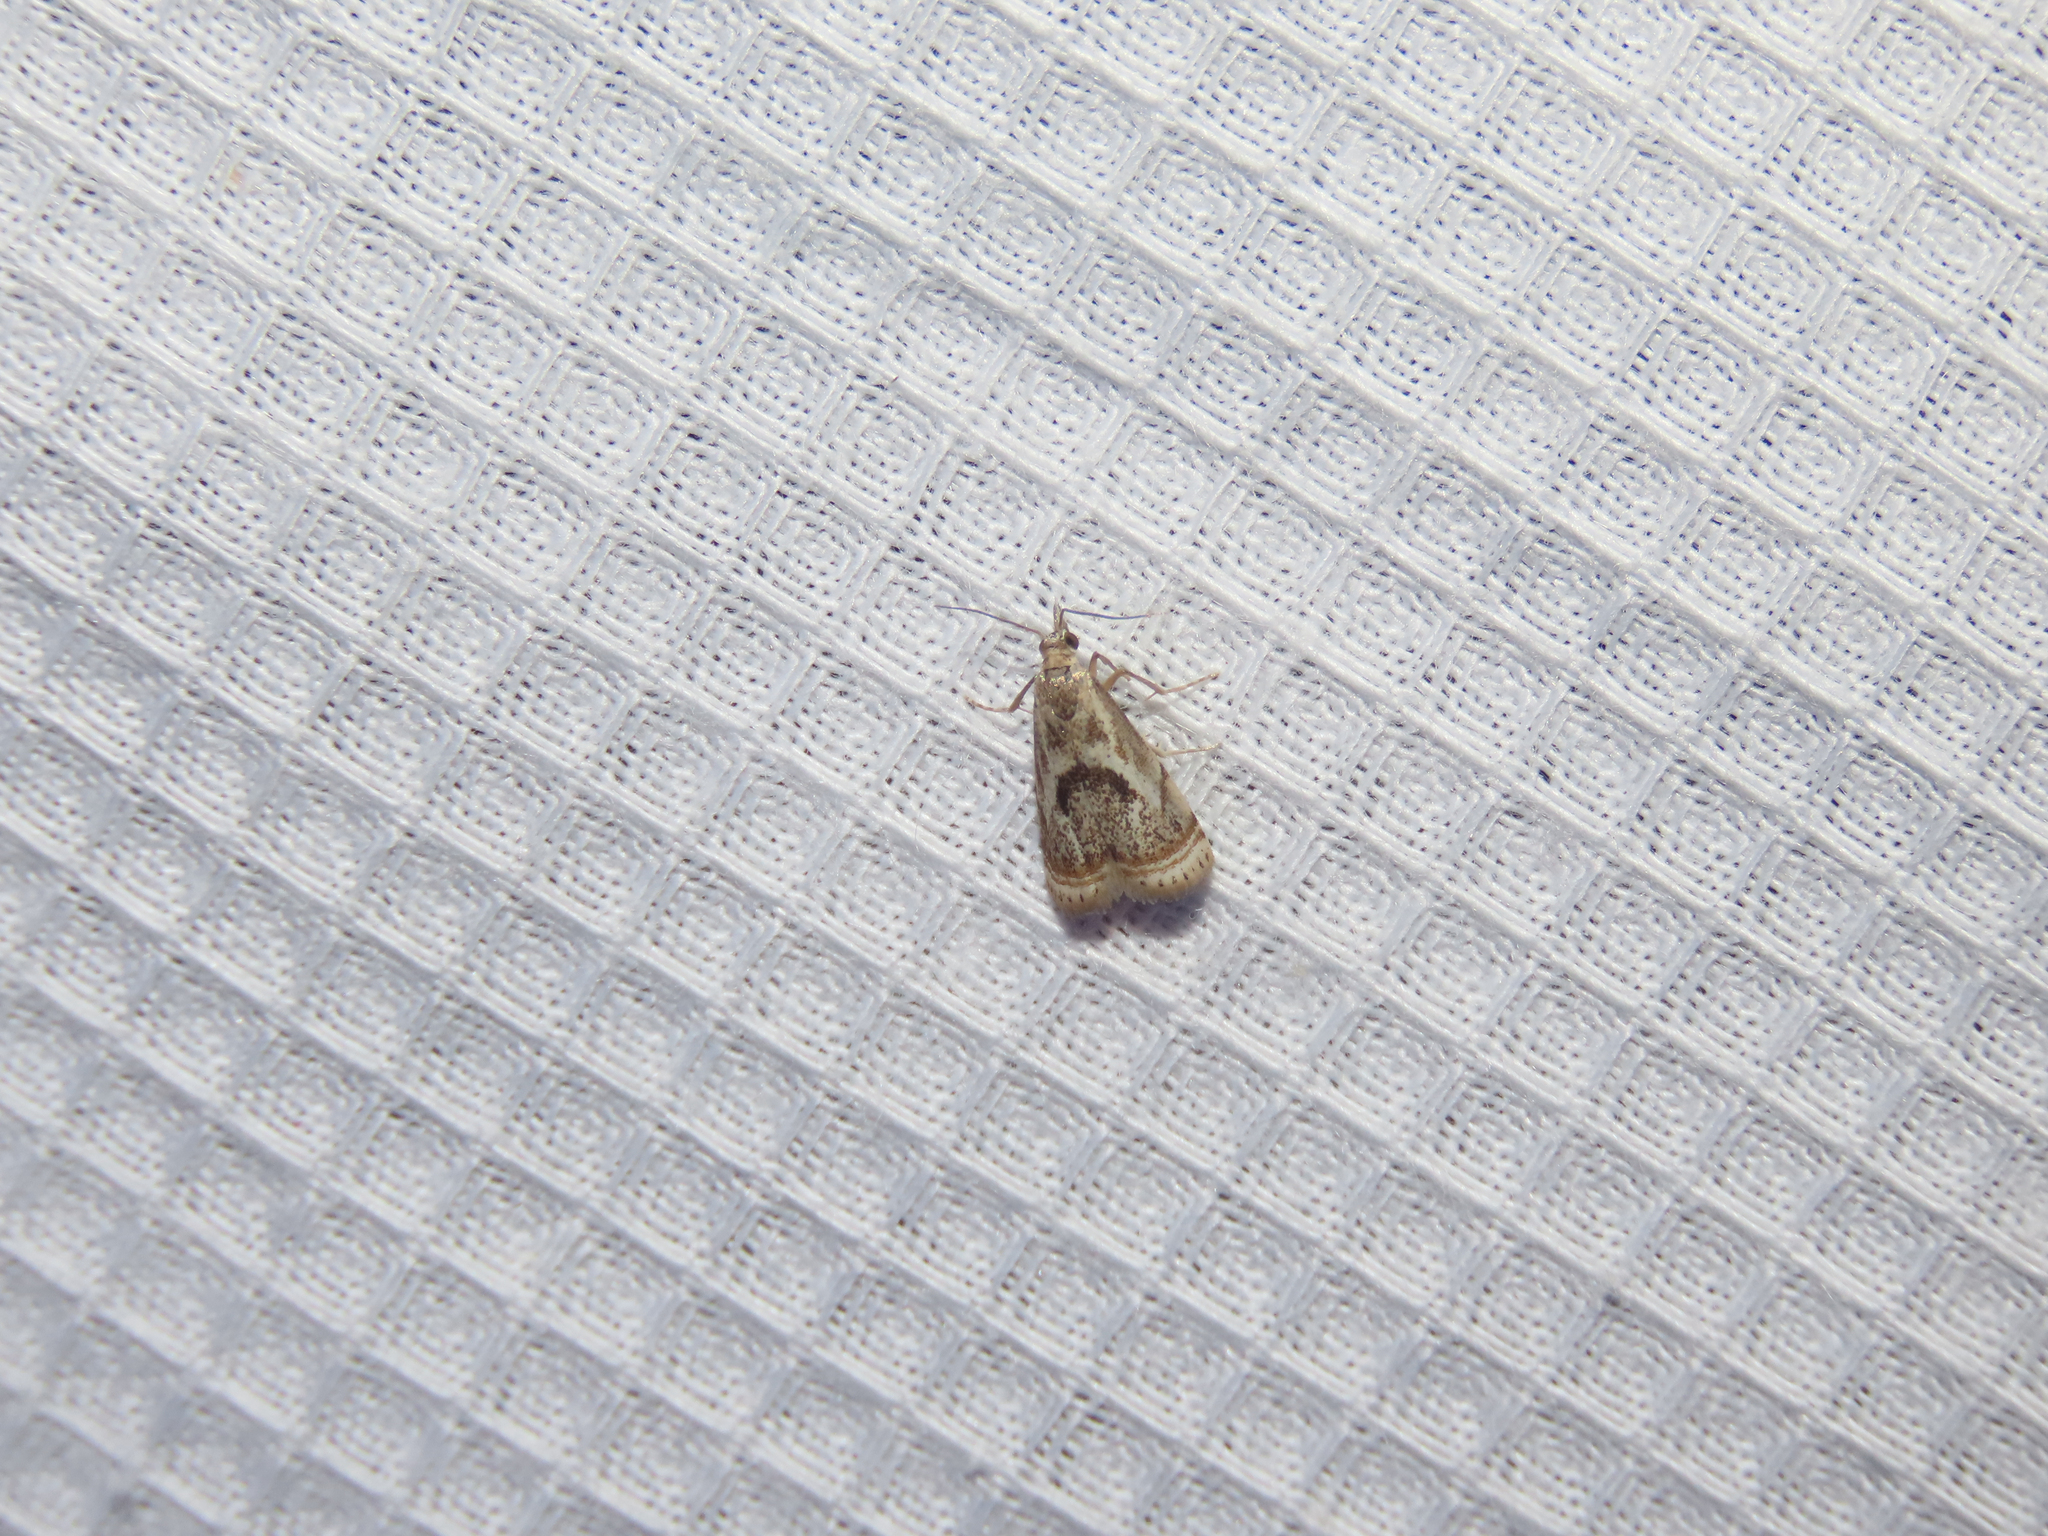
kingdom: Animalia
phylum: Arthropoda
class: Insecta
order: Lepidoptera
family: Crambidae
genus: Microcrambus
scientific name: Microcrambus elegans
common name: Elegant grass-veneer
